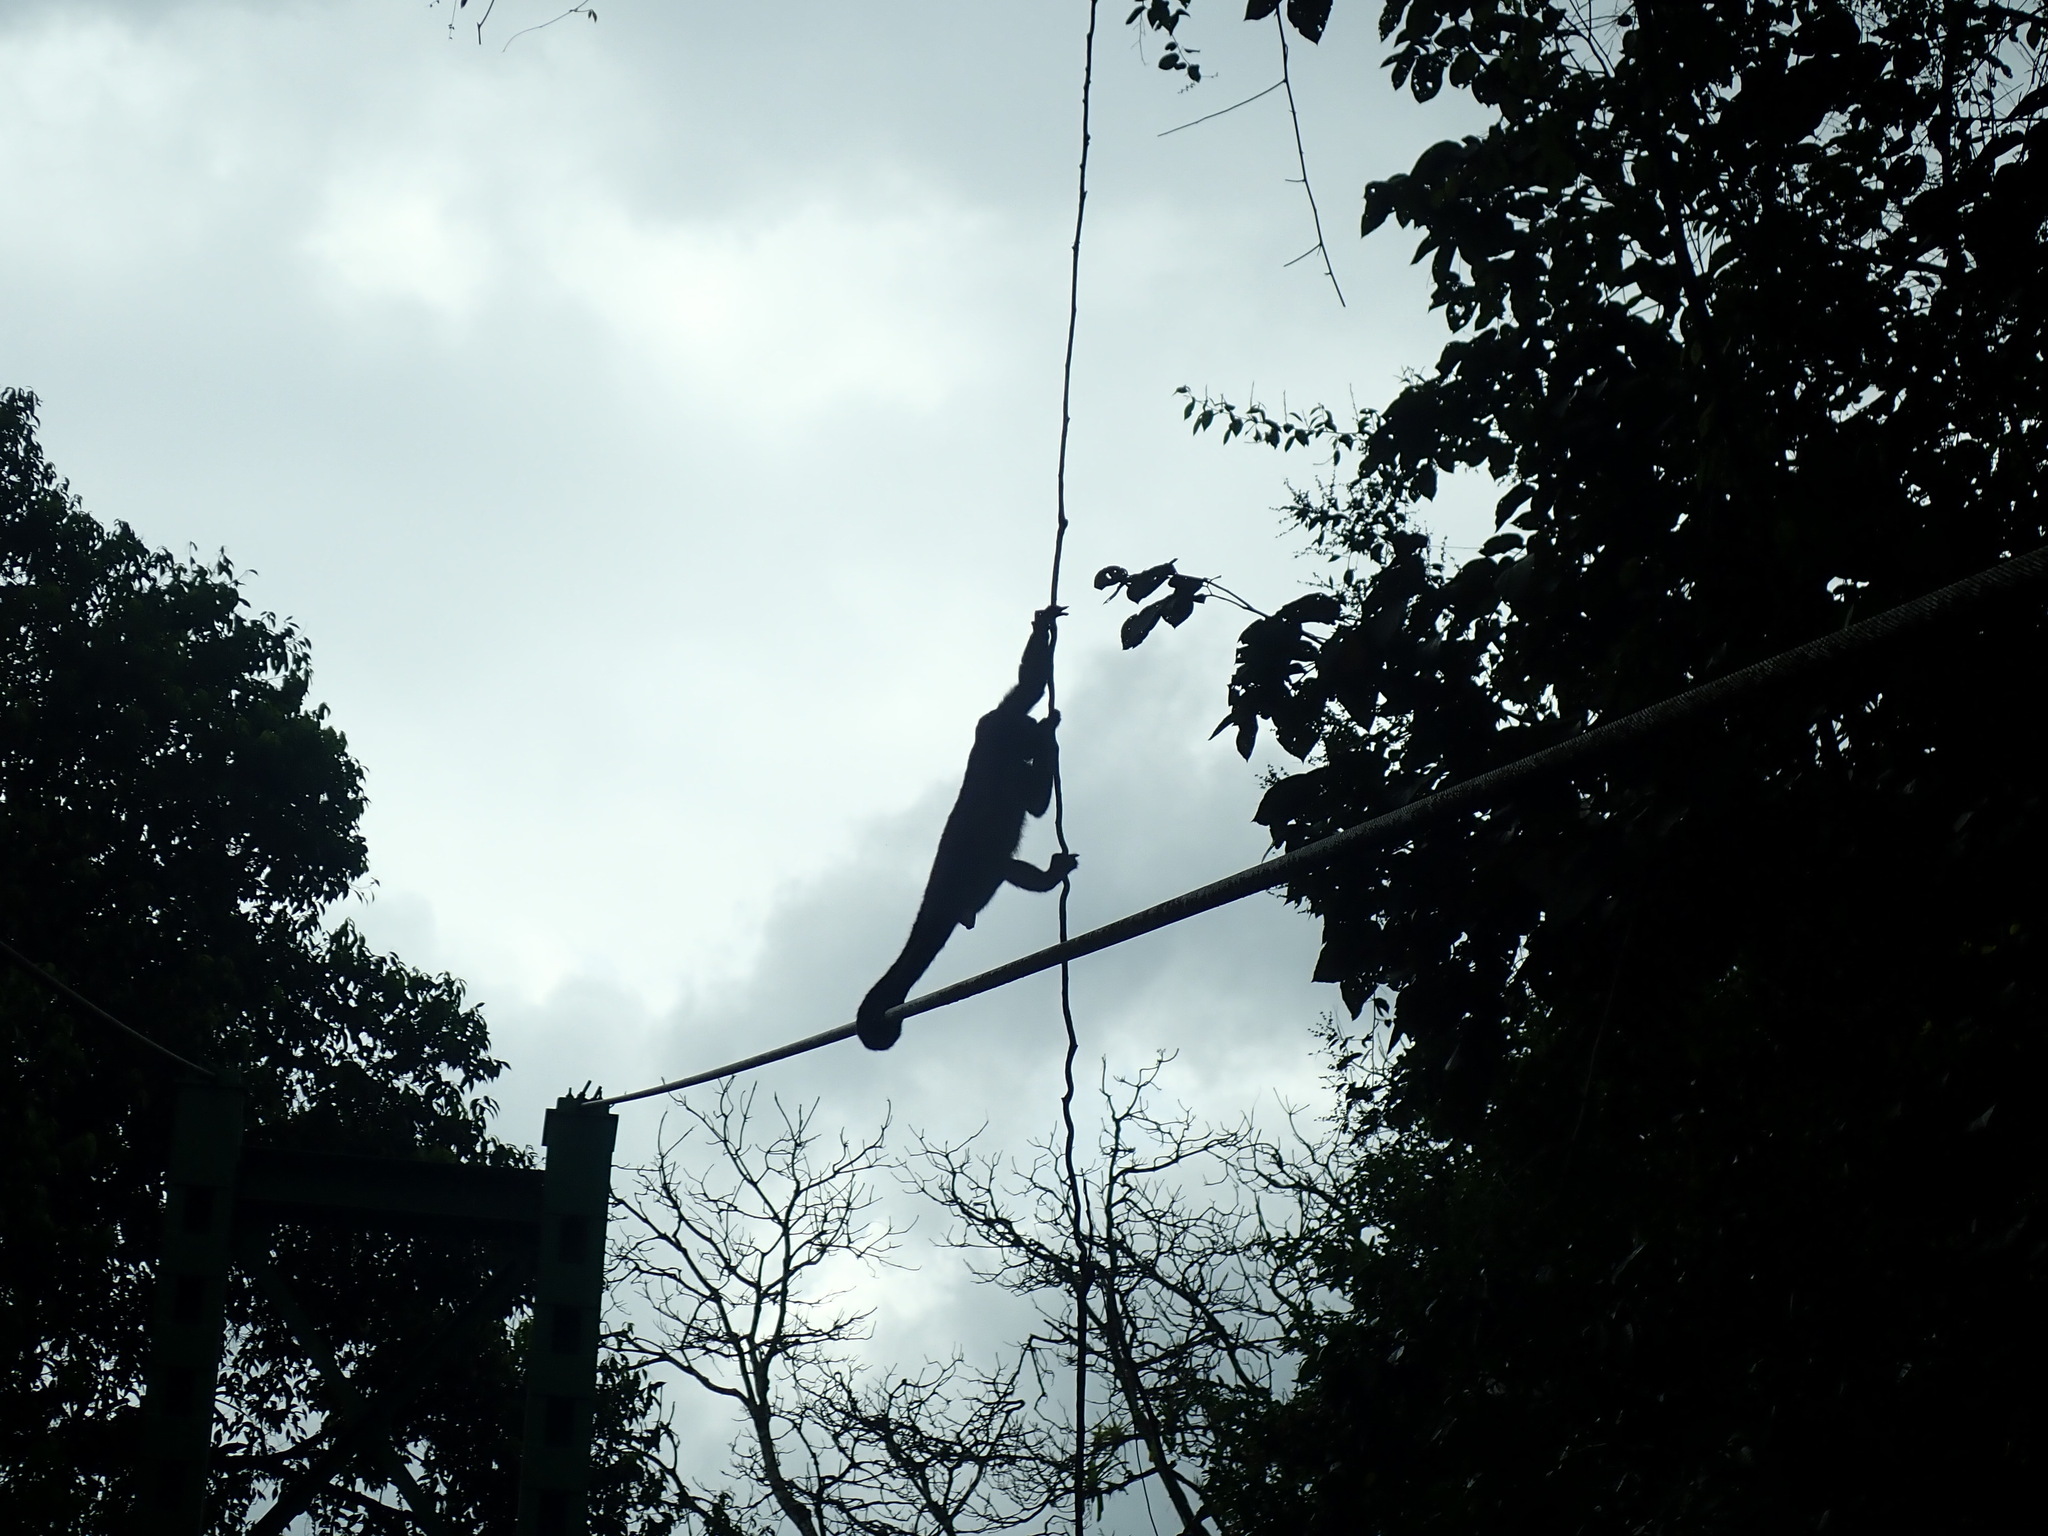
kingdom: Animalia
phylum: Chordata
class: Mammalia
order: Primates
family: Atelidae
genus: Alouatta
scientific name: Alouatta palliata
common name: Mantled howler
